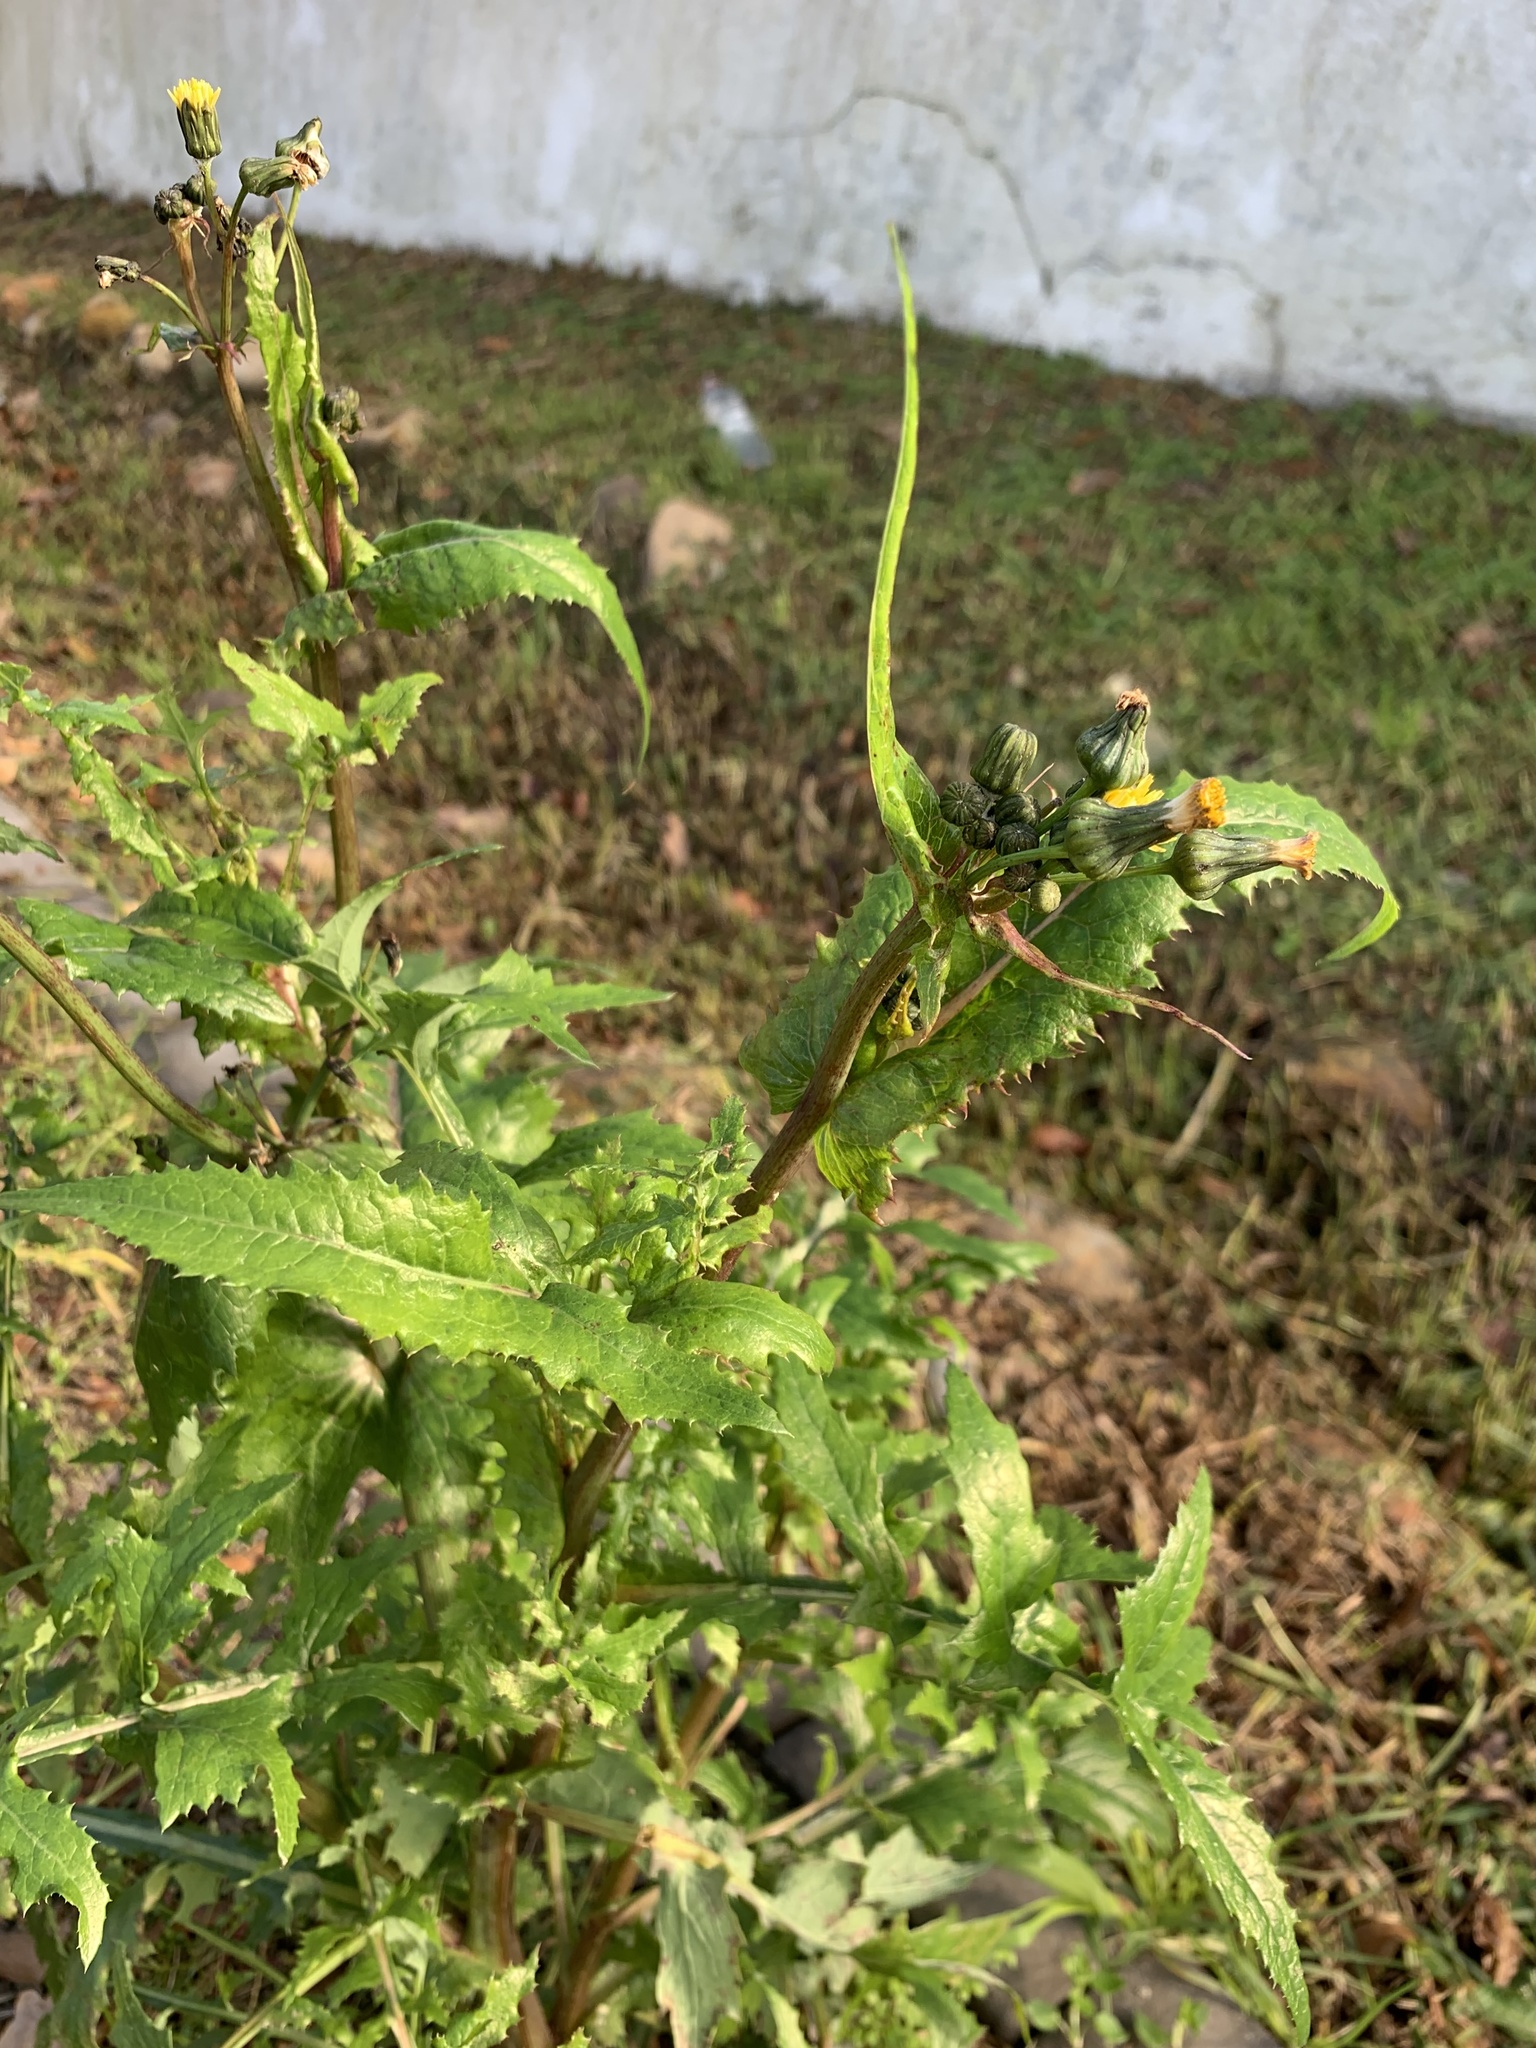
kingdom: Plantae
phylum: Tracheophyta
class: Magnoliopsida
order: Asterales
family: Asteraceae
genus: Sonchus
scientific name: Sonchus oleraceus
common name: Common sowthistle
